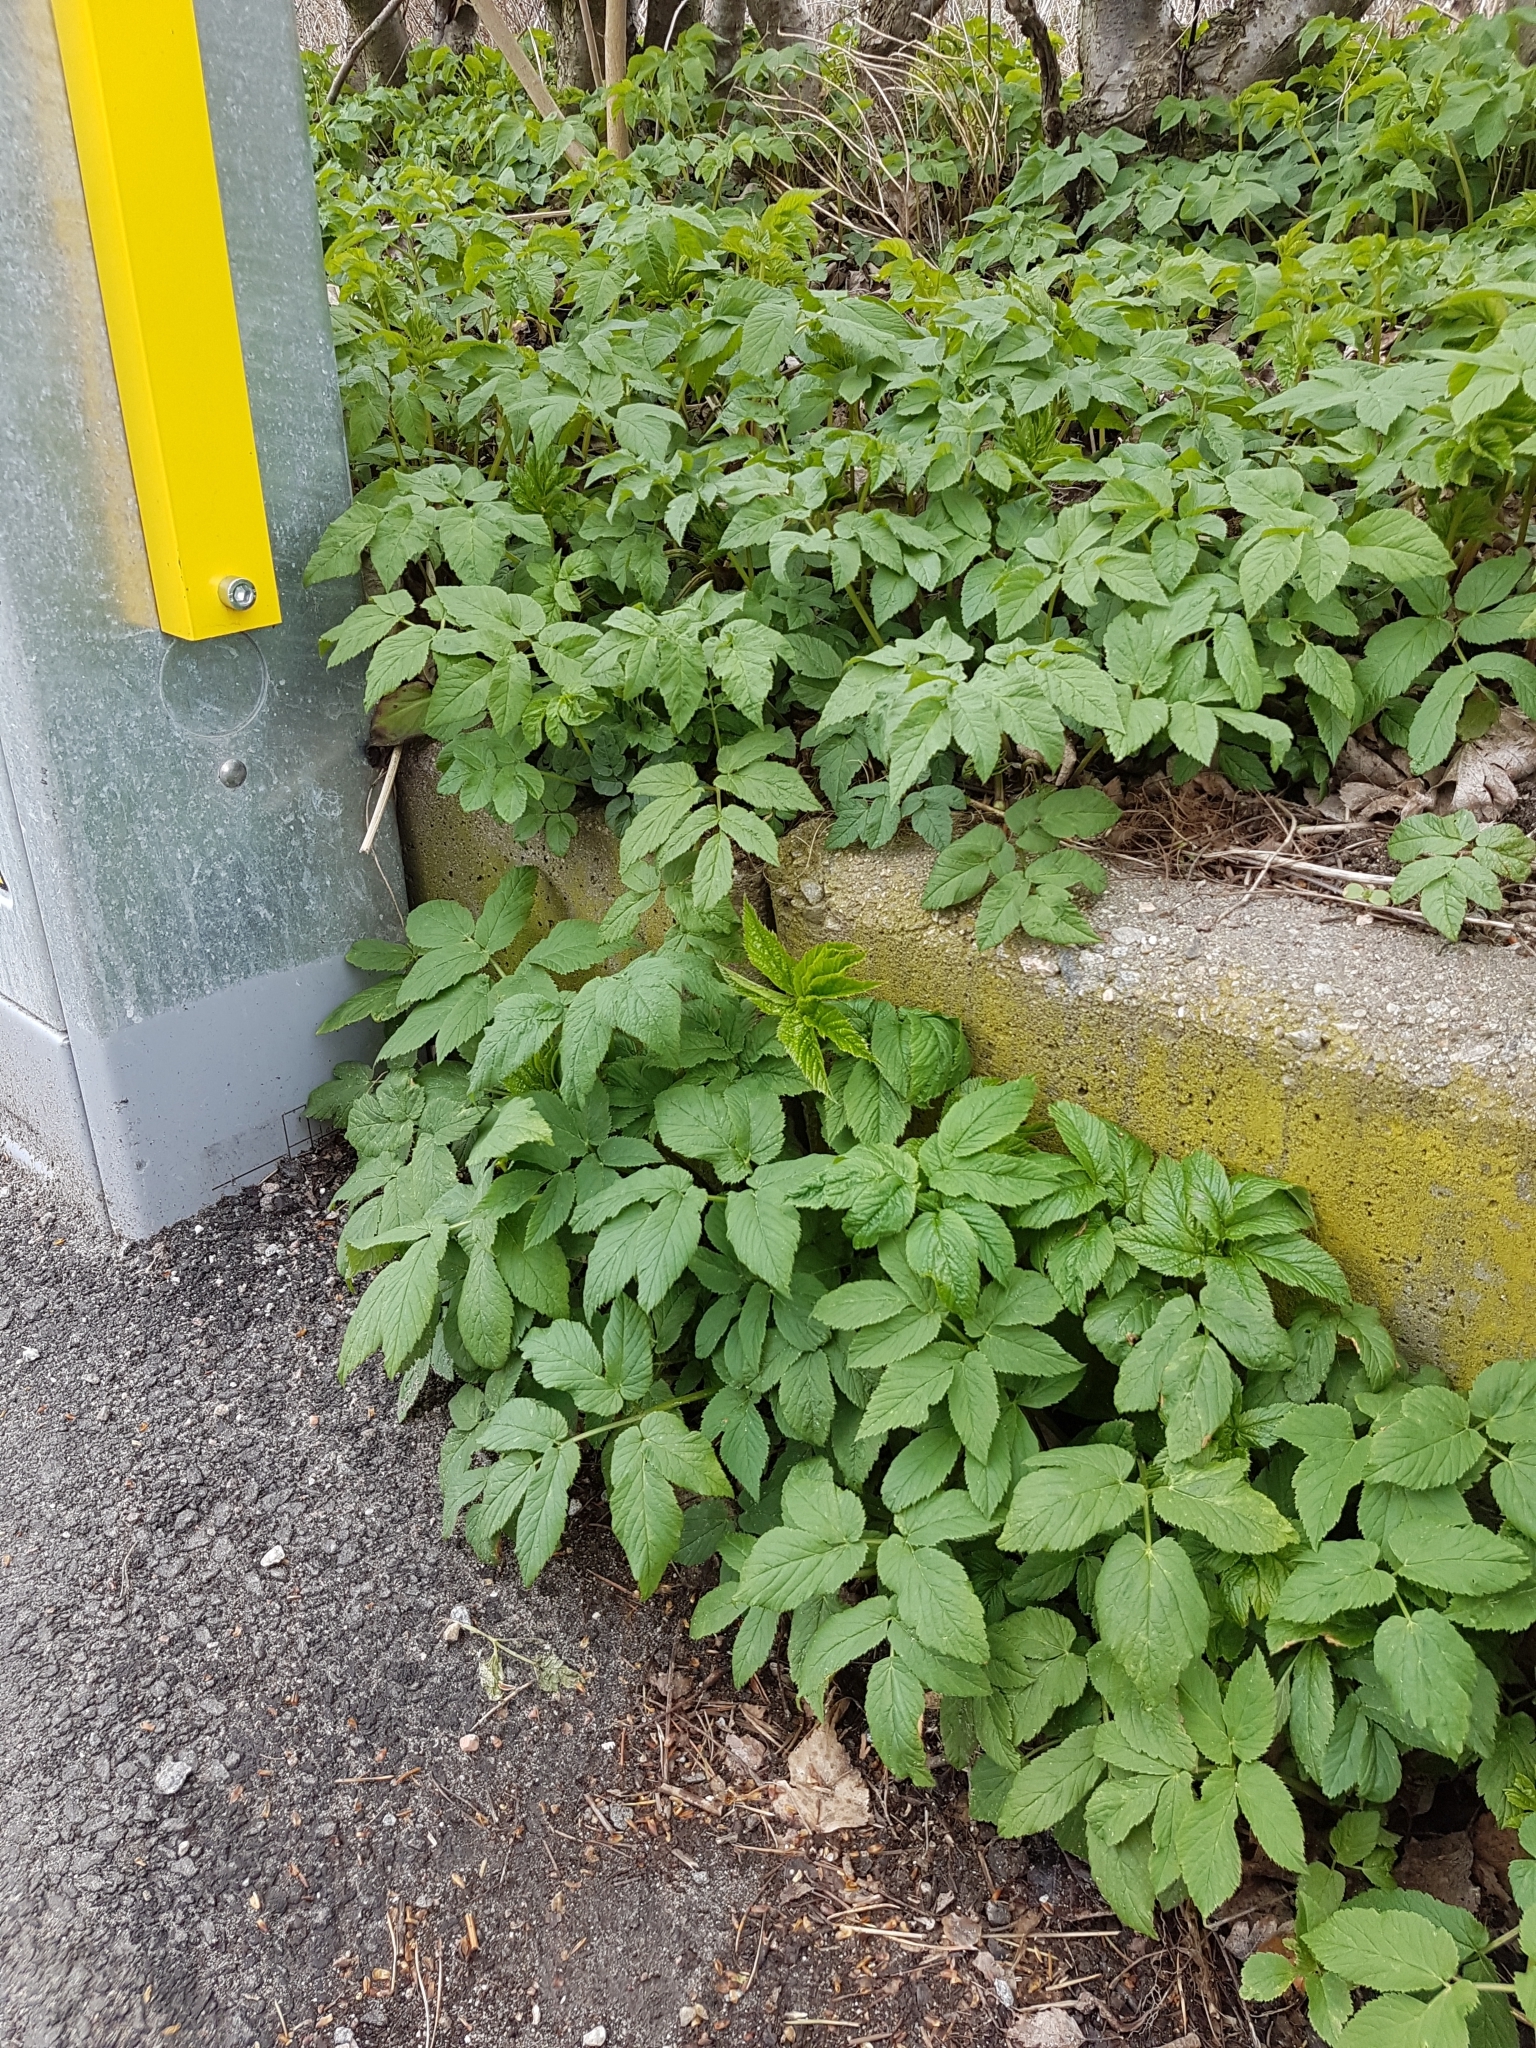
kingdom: Plantae
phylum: Tracheophyta
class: Magnoliopsida
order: Apiales
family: Apiaceae
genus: Aegopodium
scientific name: Aegopodium podagraria
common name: Ground-elder
